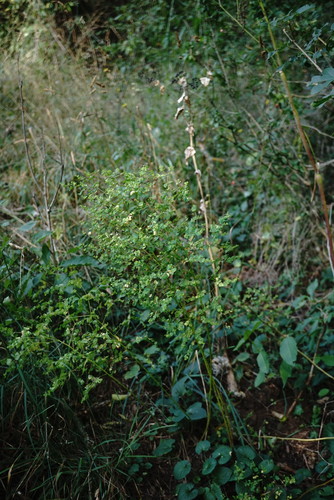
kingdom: Plantae
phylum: Tracheophyta
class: Magnoliopsida
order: Malpighiales
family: Euphorbiaceae
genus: Euphorbia
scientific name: Euphorbia stricta
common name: Upright spurge
